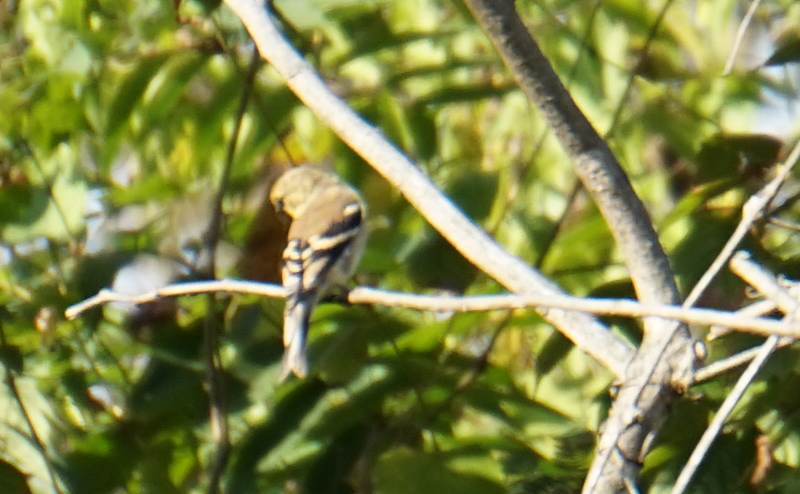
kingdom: Animalia
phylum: Chordata
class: Aves
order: Passeriformes
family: Fringillidae
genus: Spinus
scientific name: Spinus tristis
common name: American goldfinch
